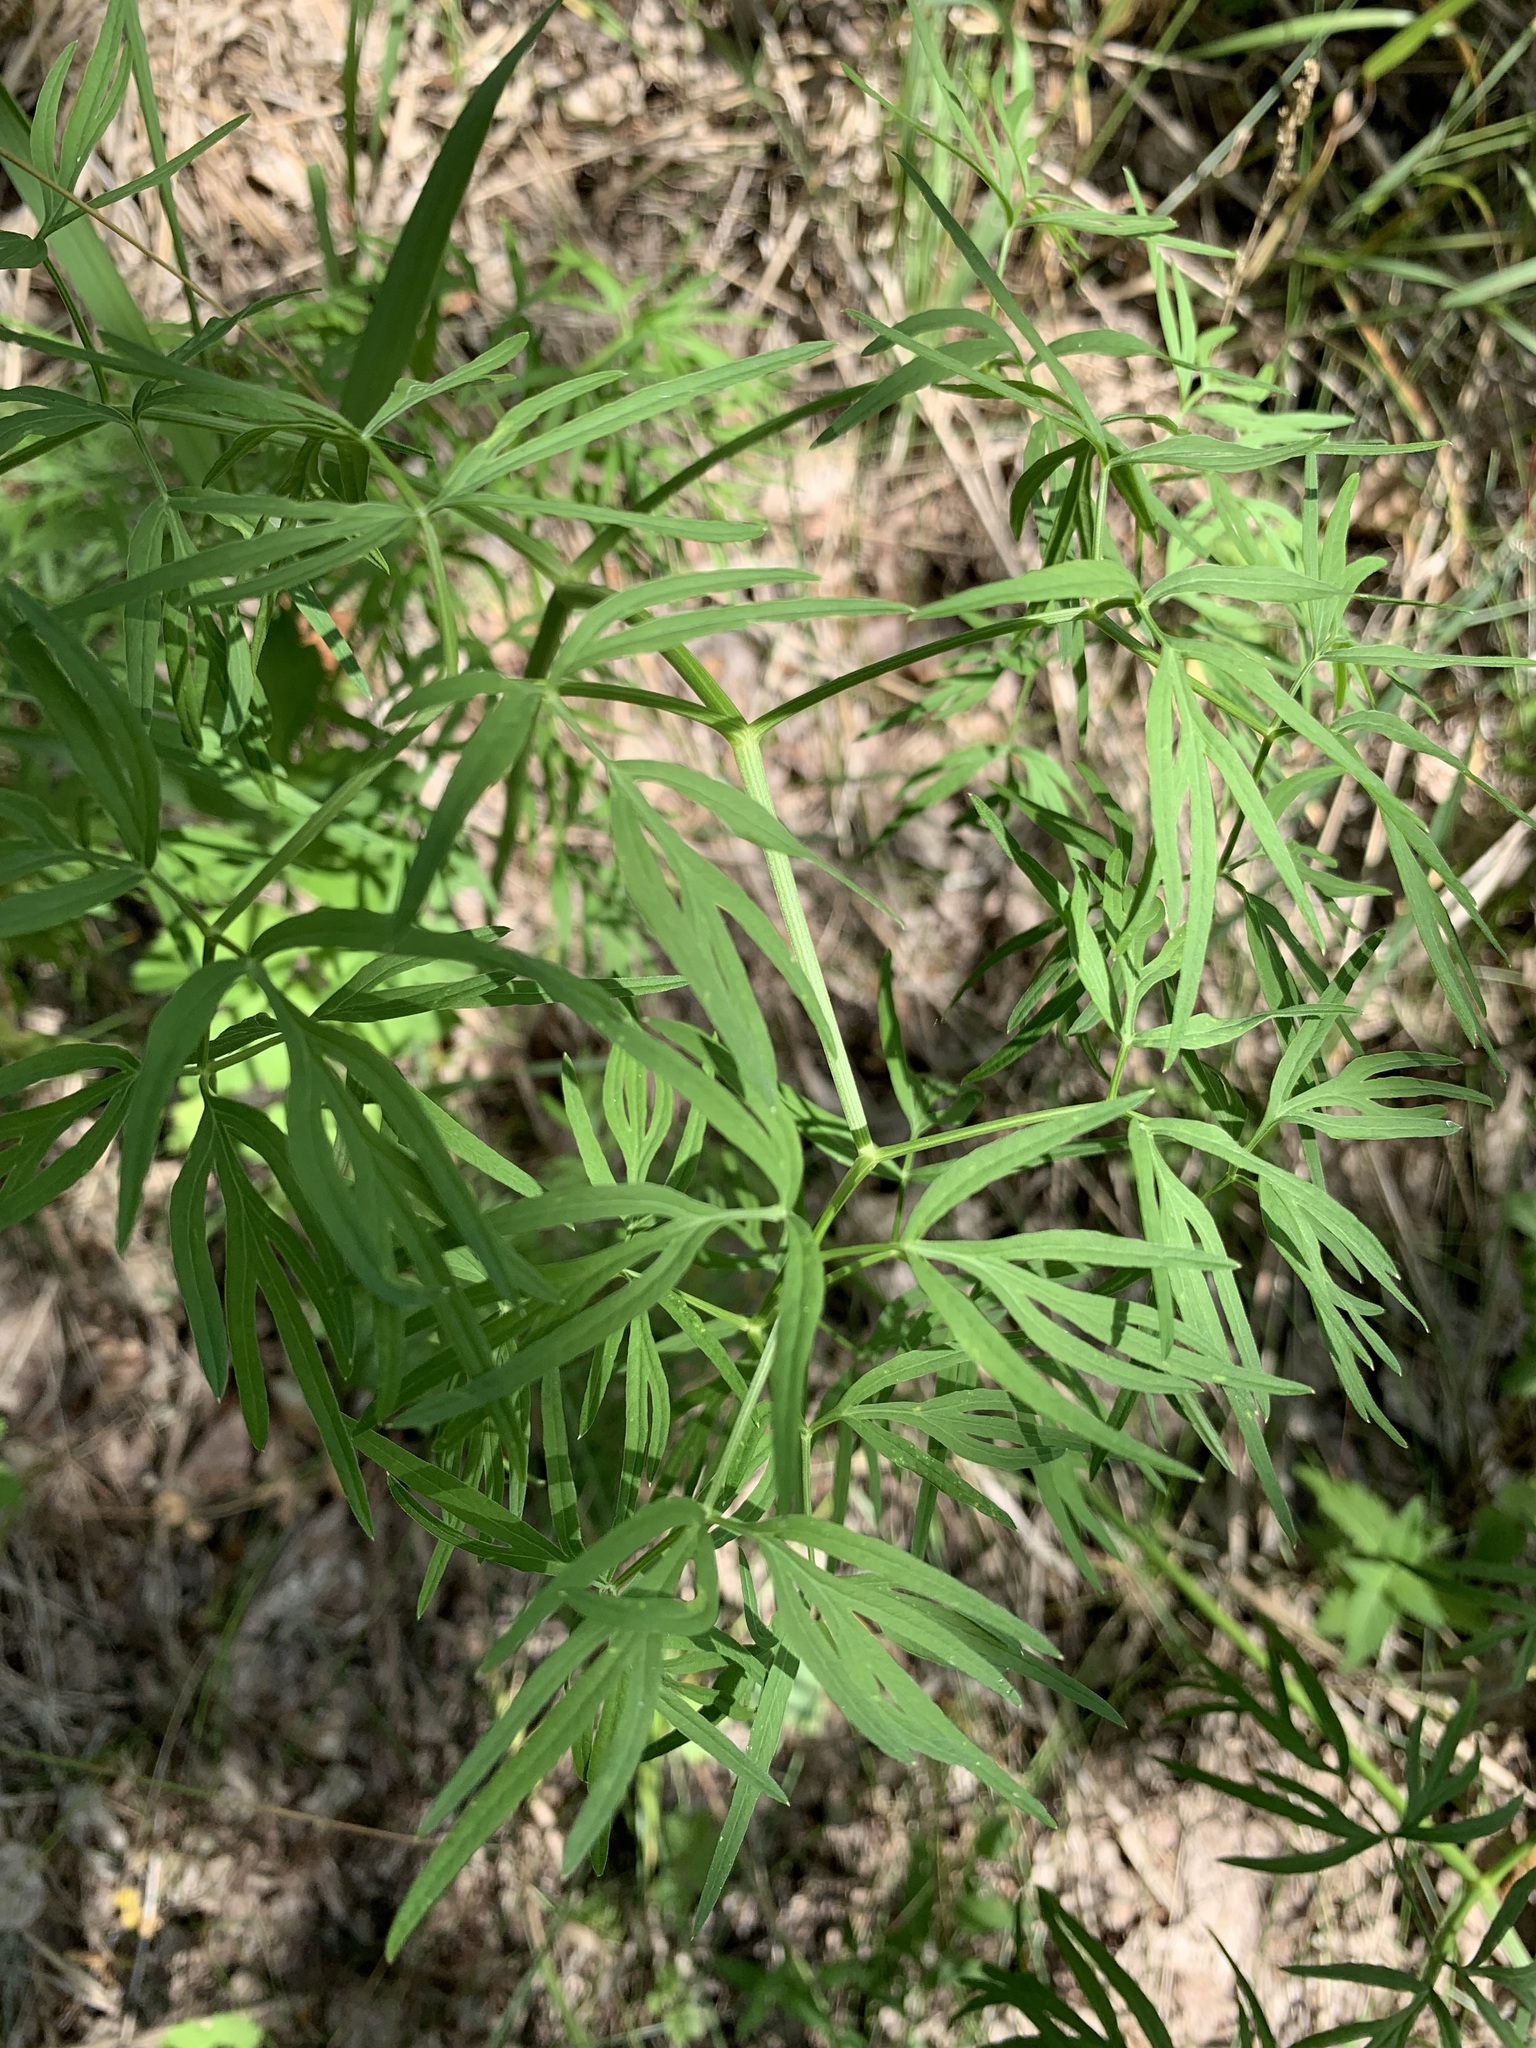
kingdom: Plantae
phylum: Tracheophyta
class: Magnoliopsida
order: Apiales
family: Apiaceae
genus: Cenolophium
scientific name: Cenolophium fischeri
